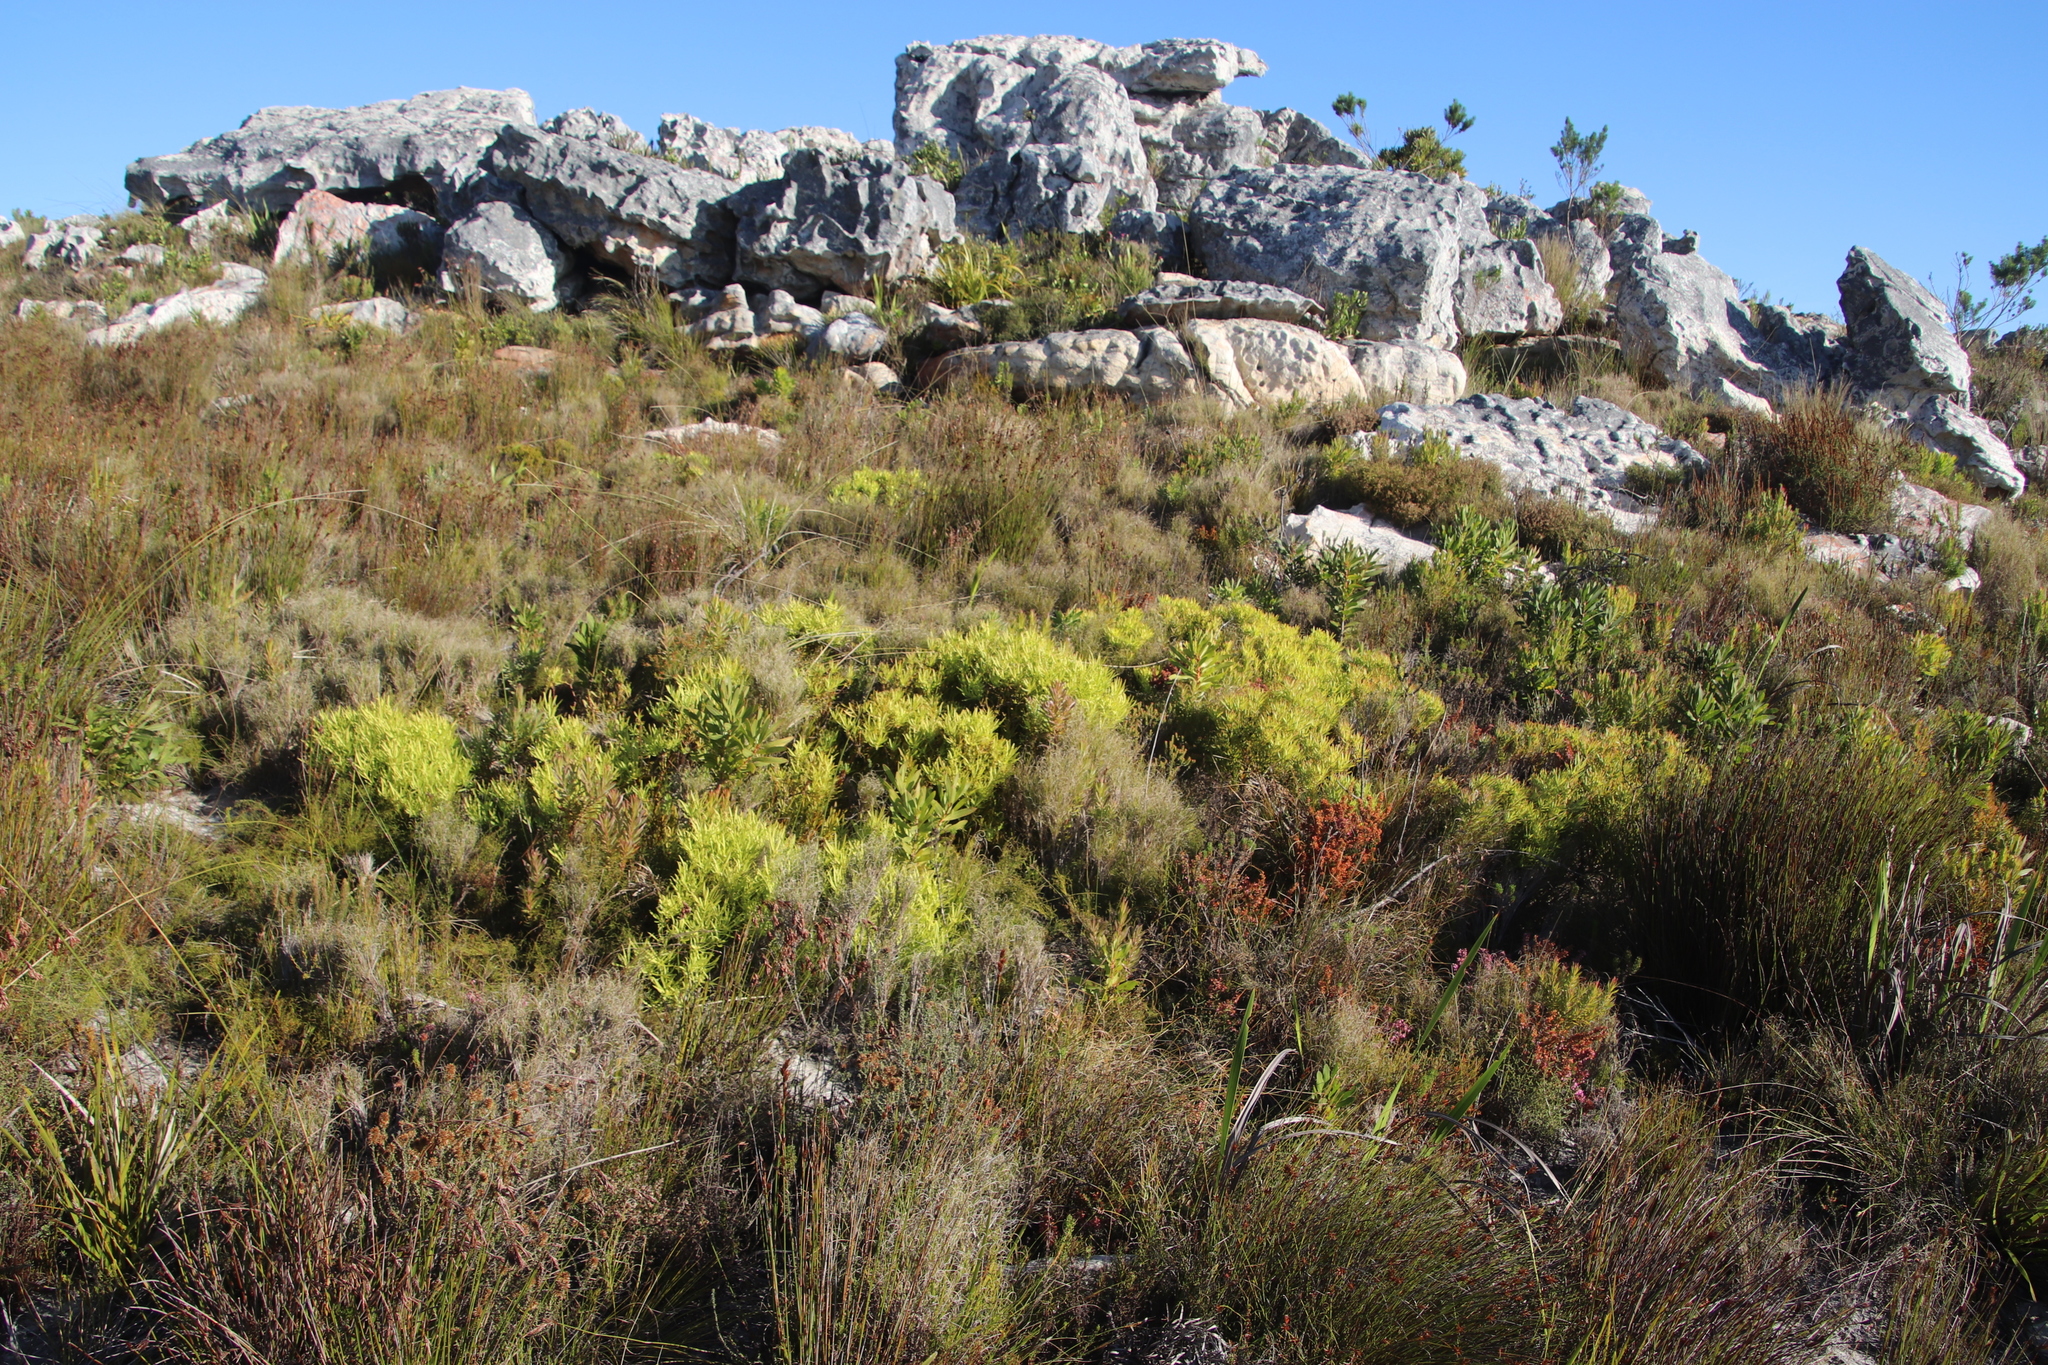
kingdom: Plantae
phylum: Tracheophyta
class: Magnoliopsida
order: Proteales
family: Proteaceae
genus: Leucadendron
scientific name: Leucadendron salignum
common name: Common sunshine conebush
